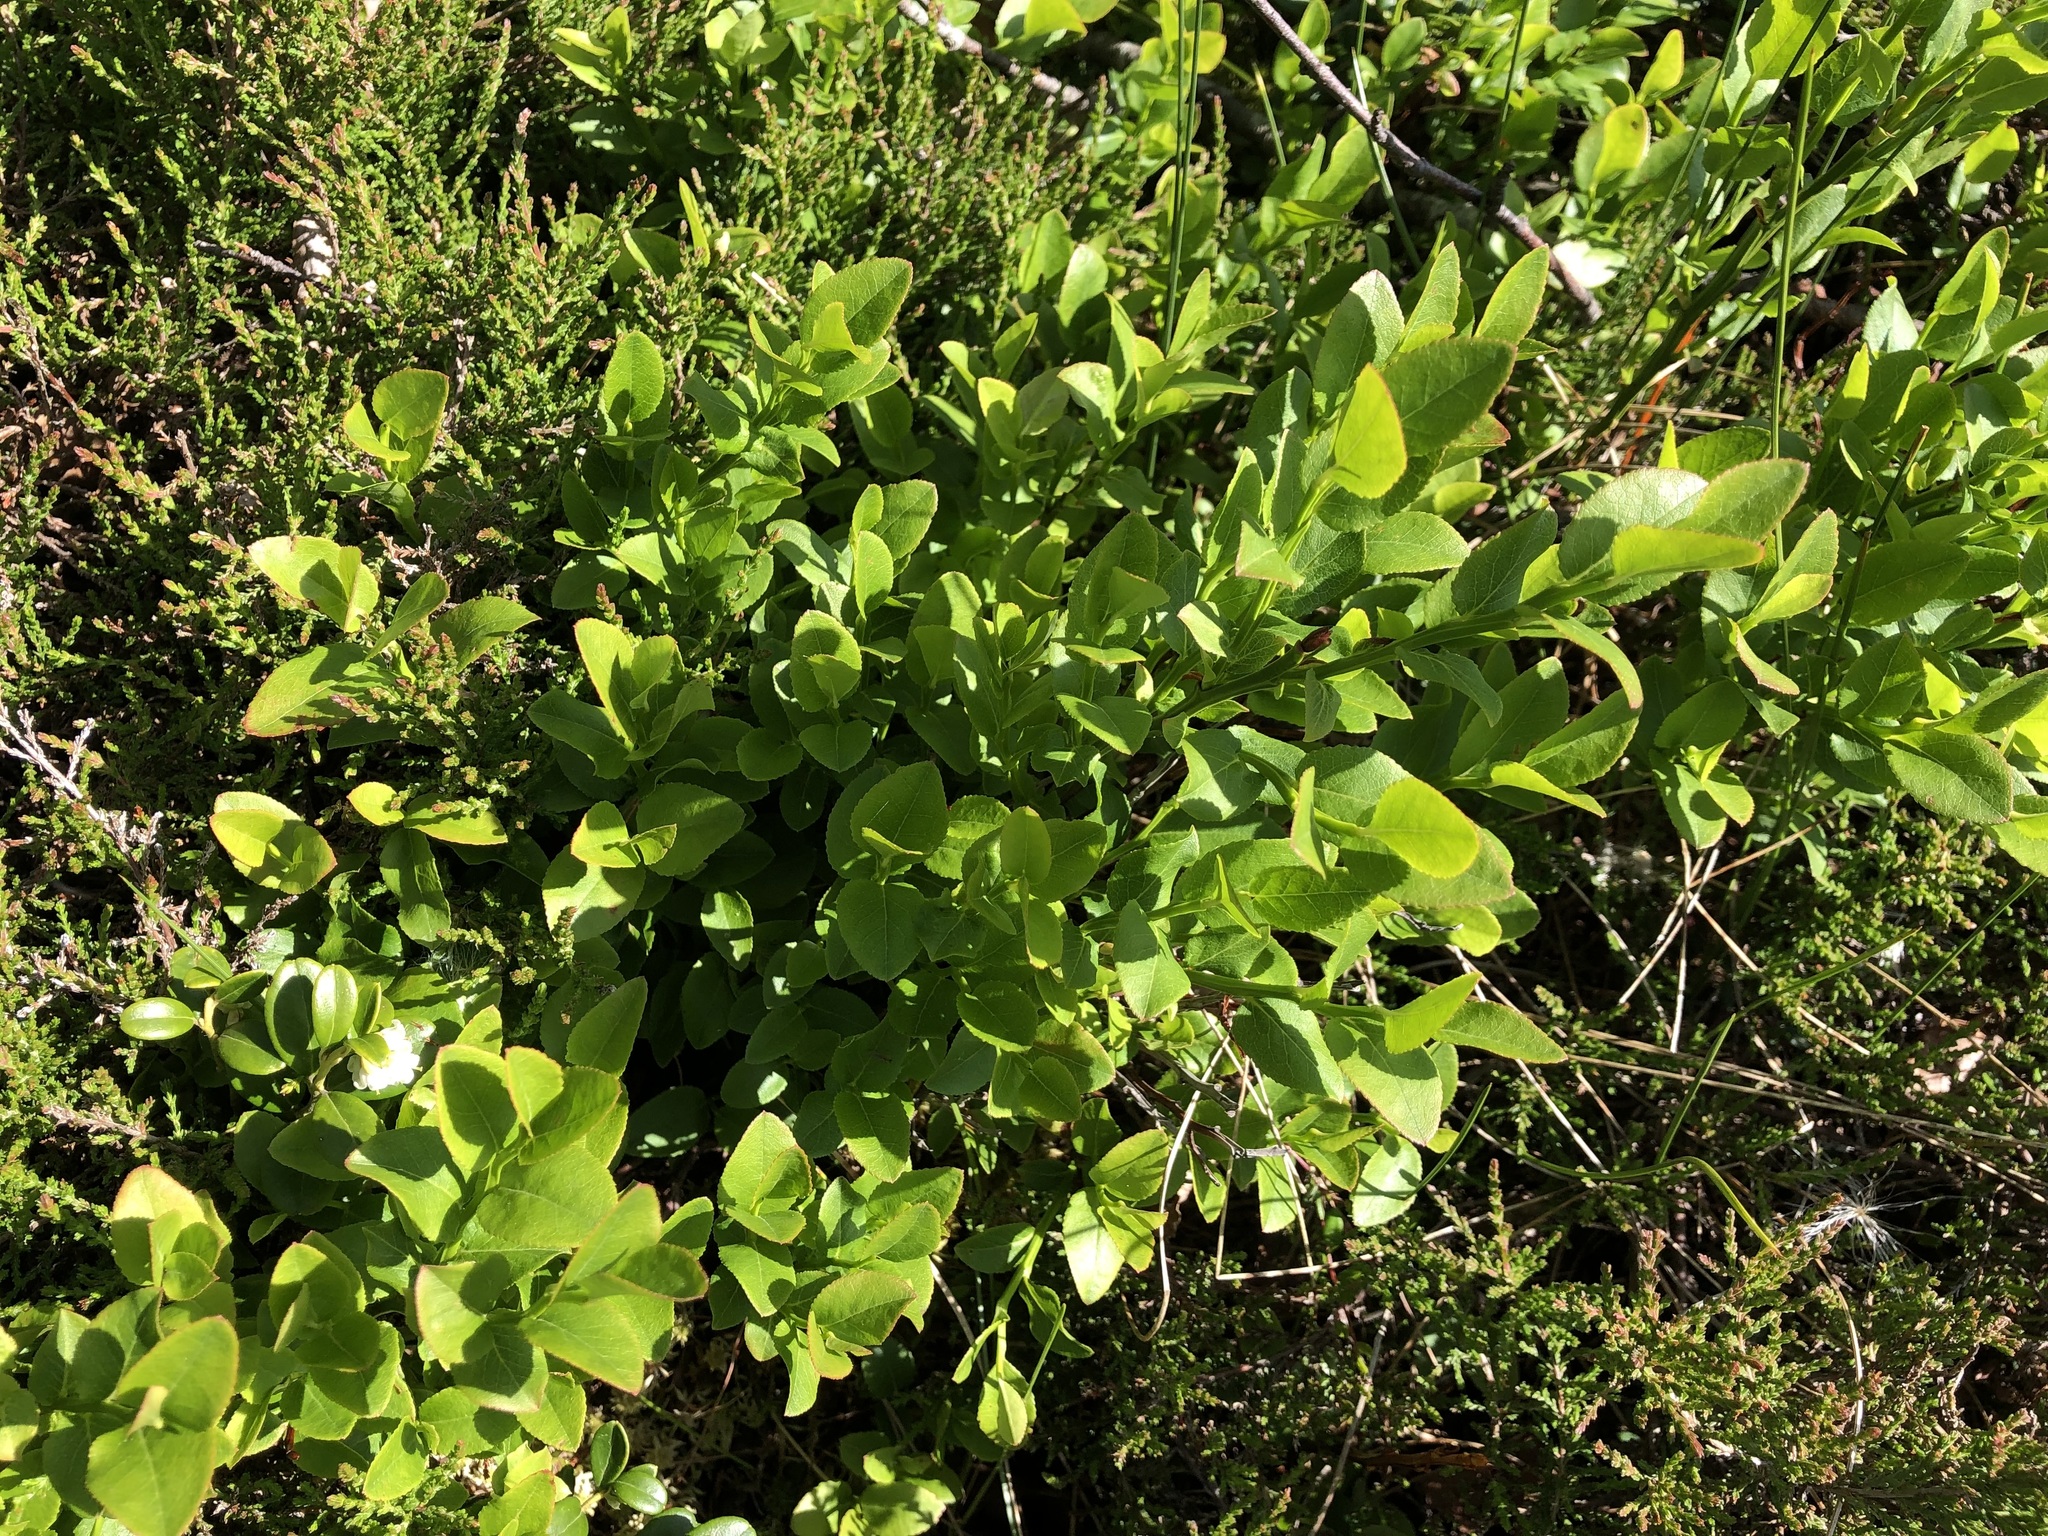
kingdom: Plantae
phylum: Tracheophyta
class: Magnoliopsida
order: Ericales
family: Ericaceae
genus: Vaccinium
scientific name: Vaccinium myrtillus
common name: Bilberry
